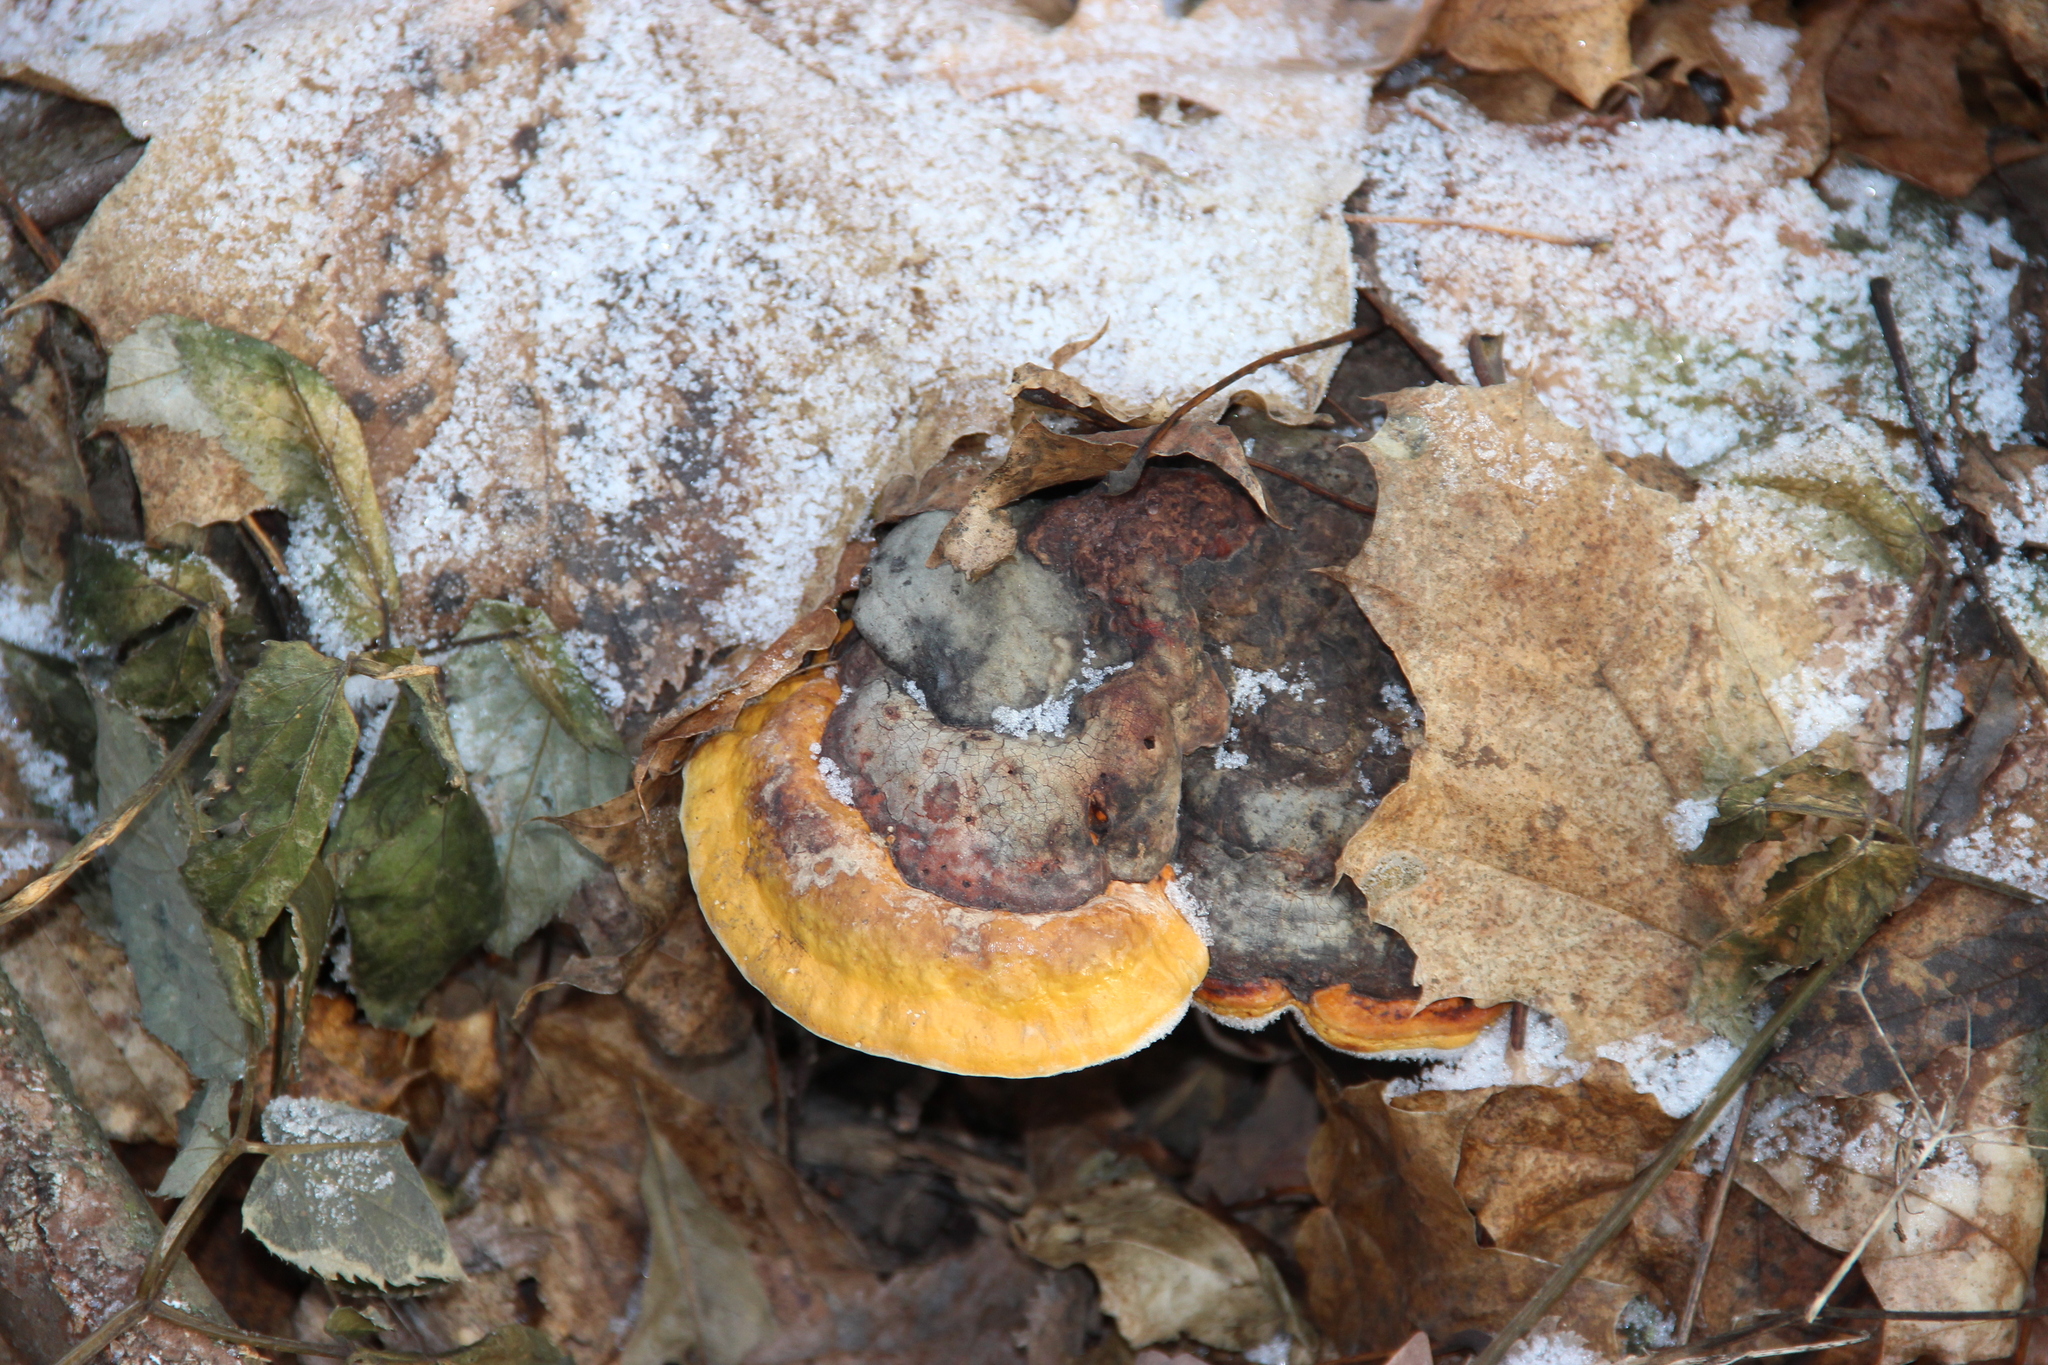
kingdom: Fungi
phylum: Basidiomycota
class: Agaricomycetes
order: Polyporales
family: Fomitopsidaceae
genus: Fomitopsis
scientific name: Fomitopsis pinicola
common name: Red-belted bracket
